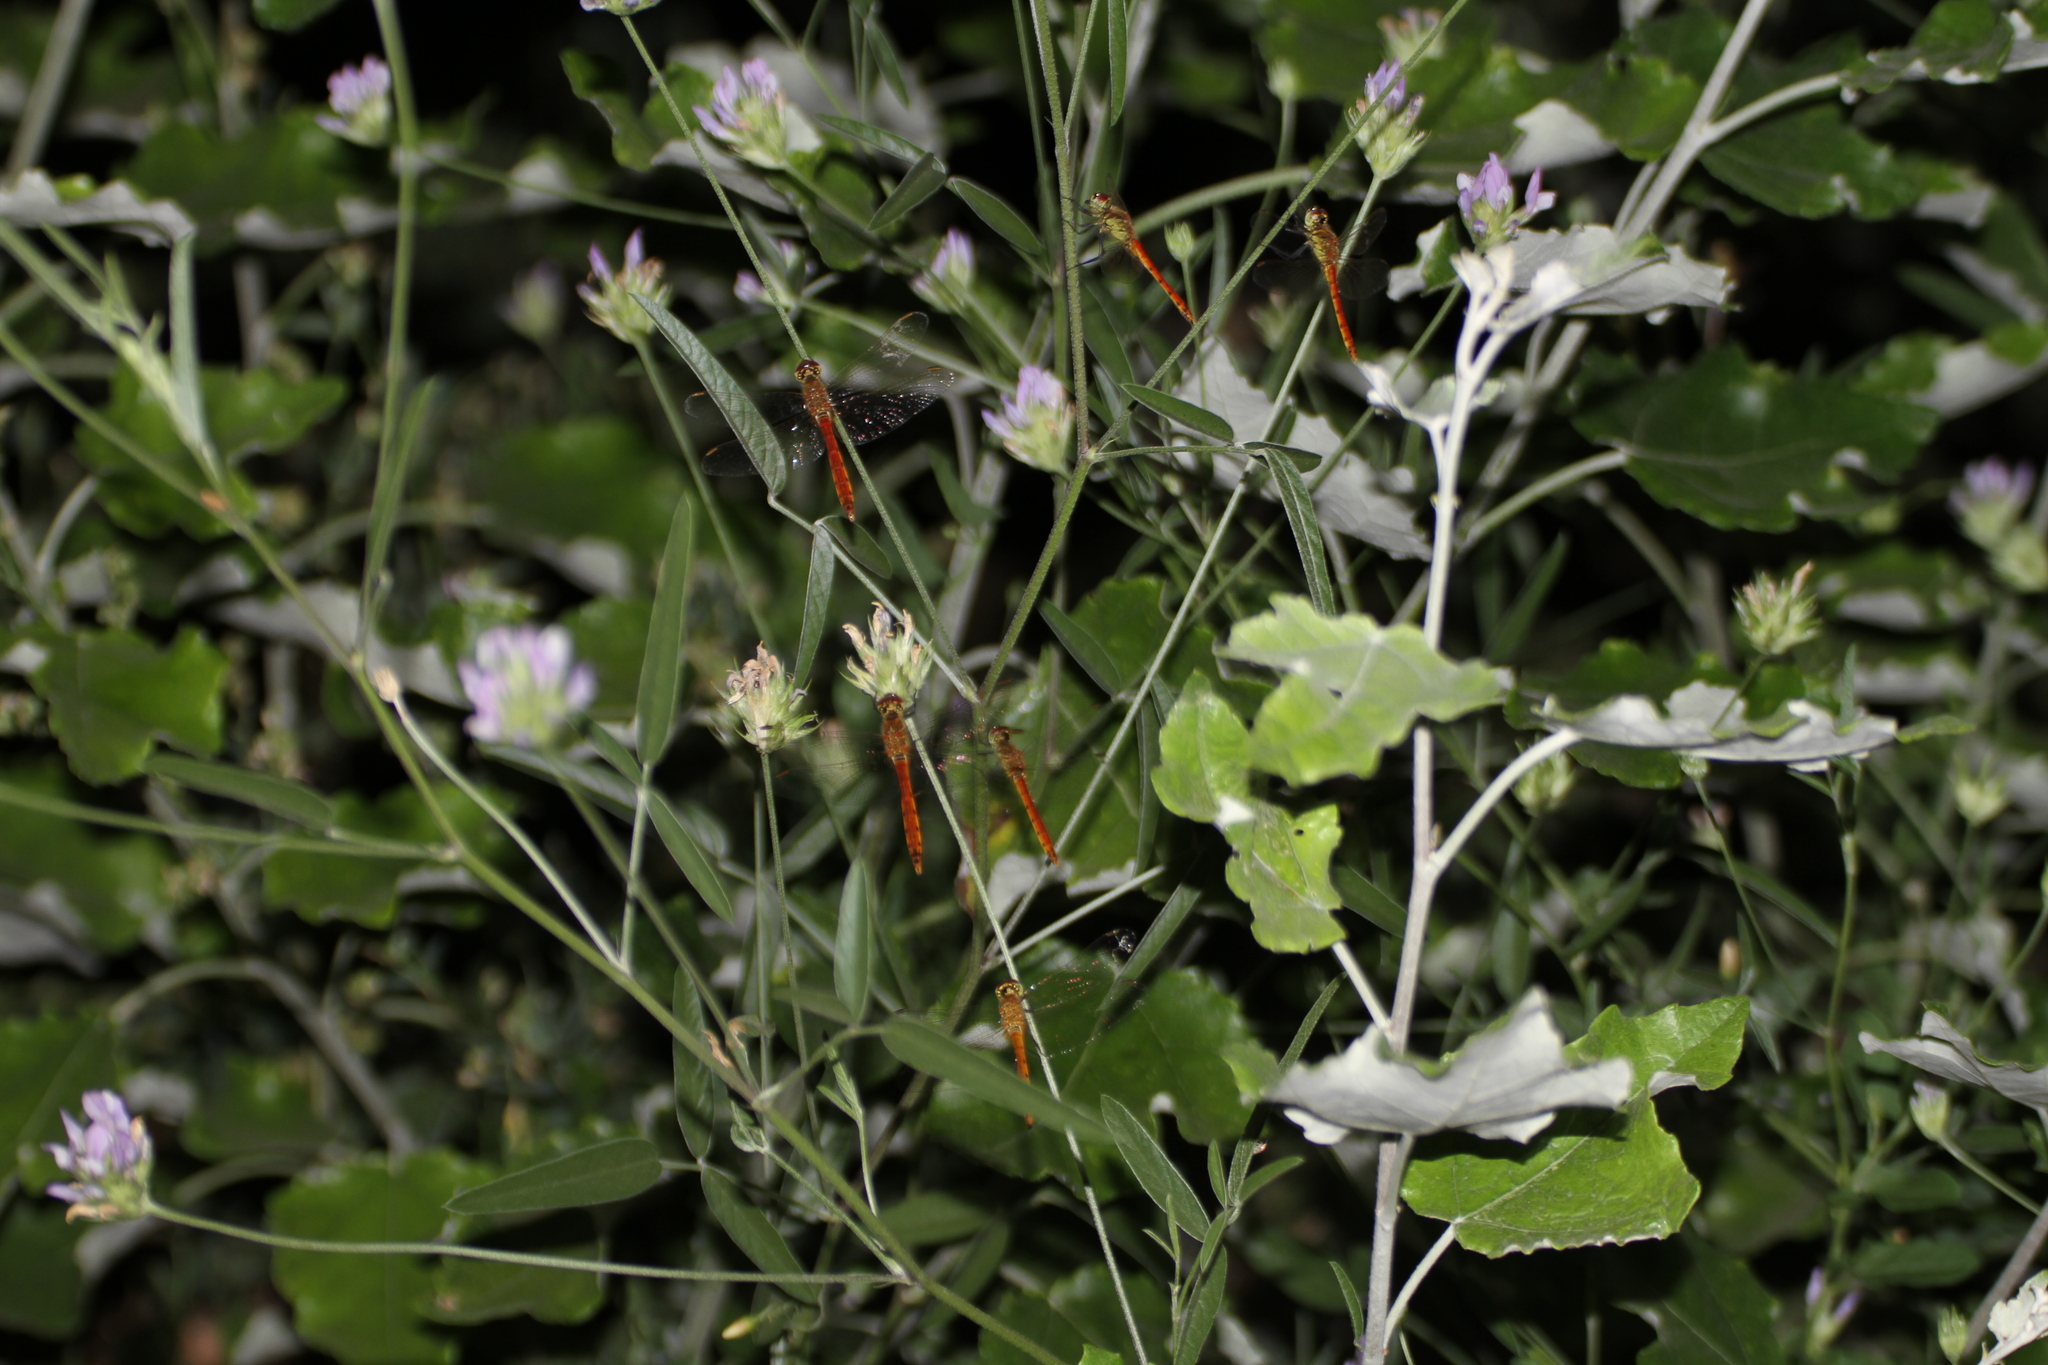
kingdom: Animalia
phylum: Arthropoda
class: Insecta
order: Odonata
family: Libellulidae
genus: Sympetrum
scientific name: Sympetrum depressiusculum
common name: Spotted darter
